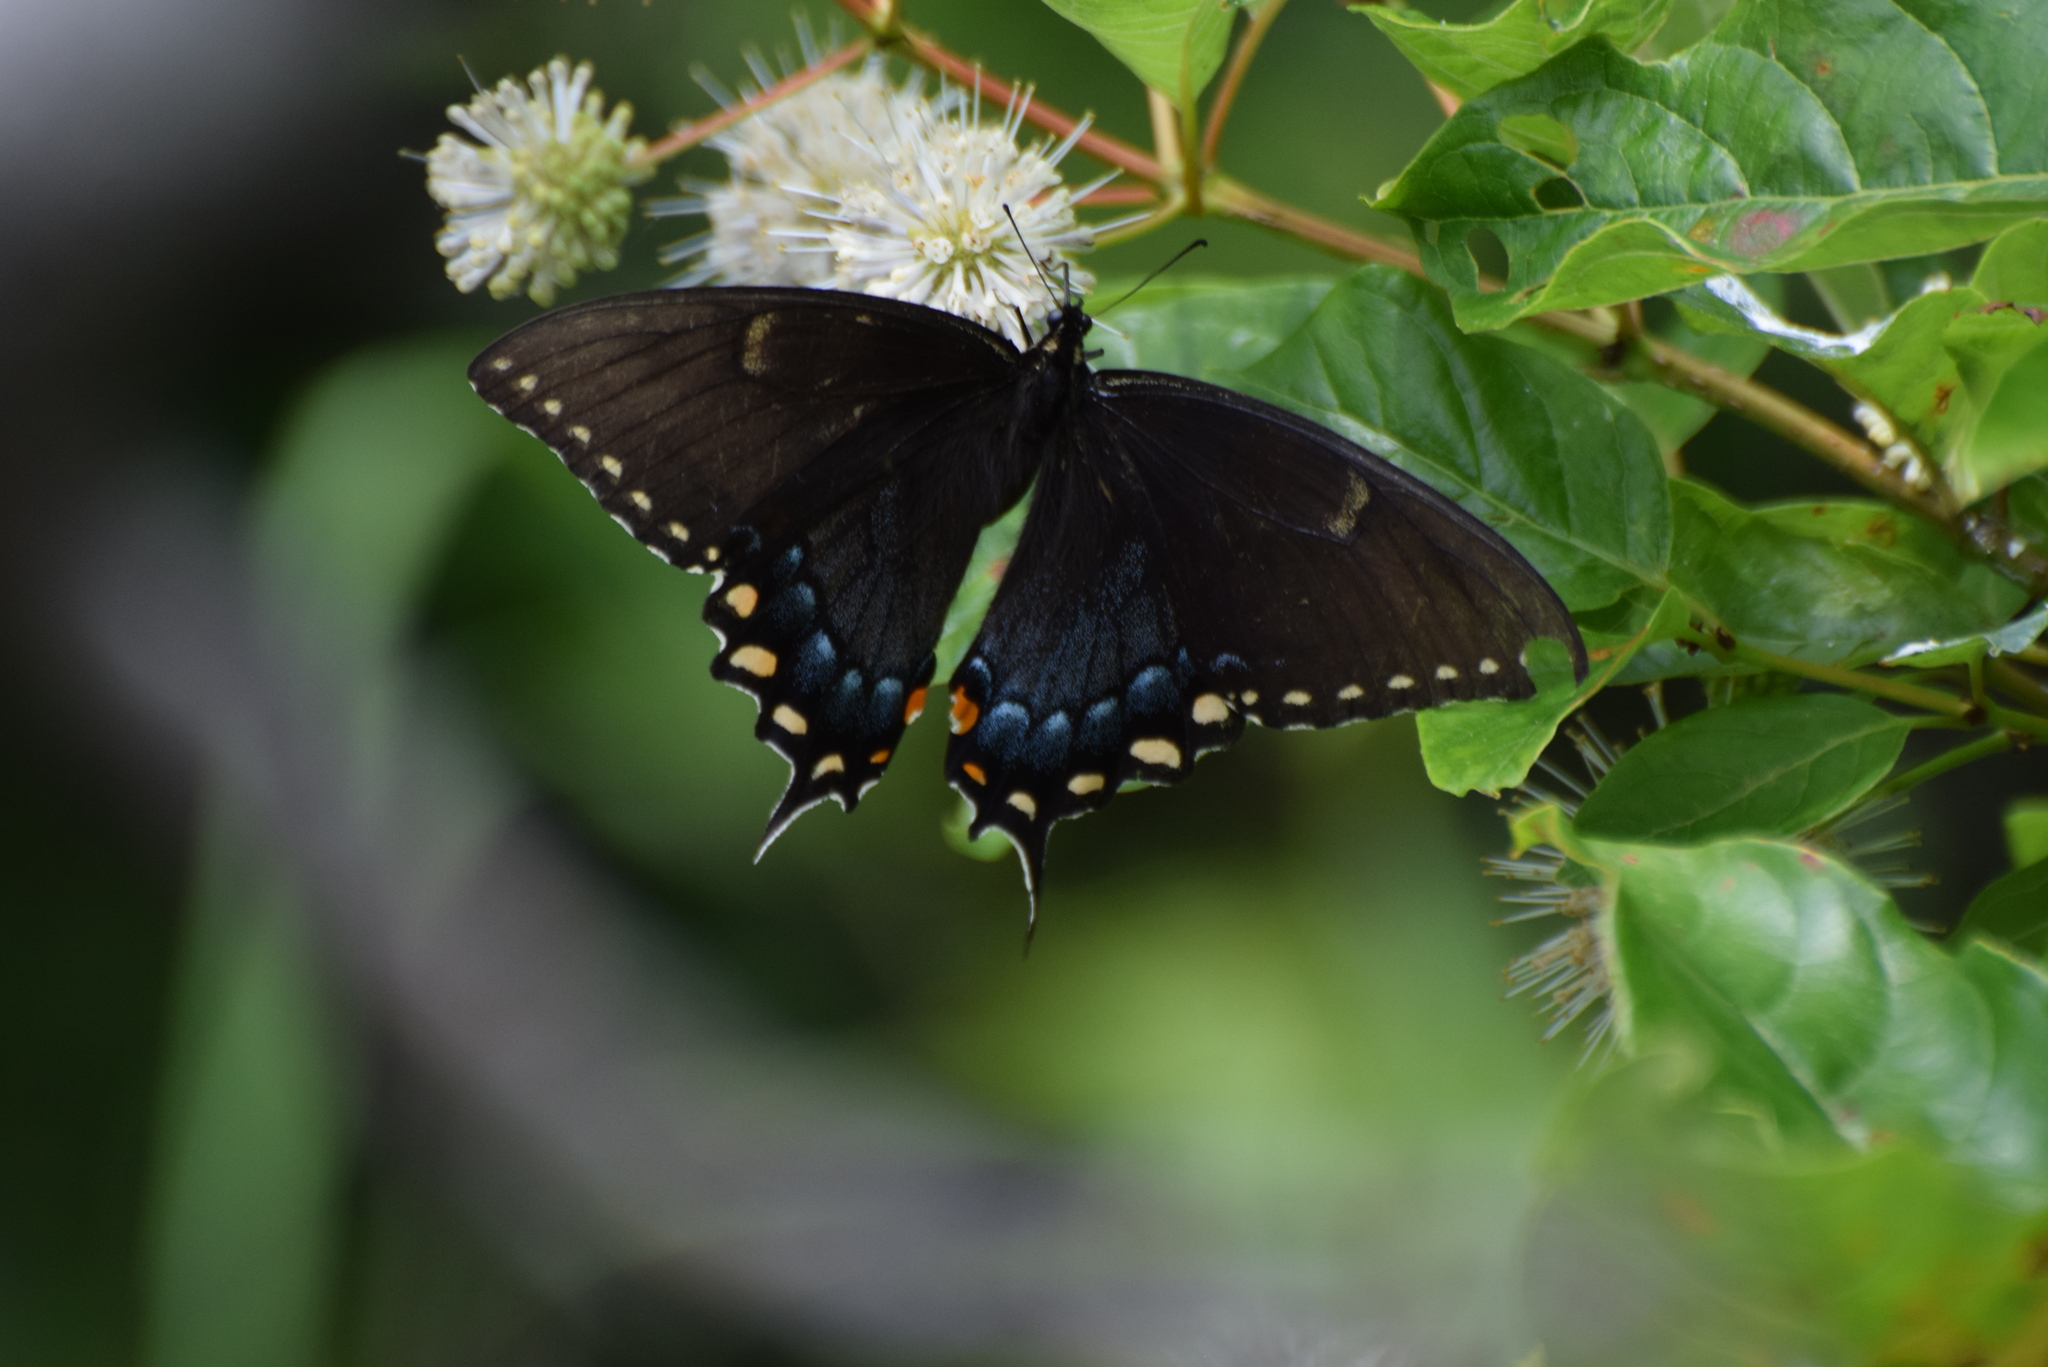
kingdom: Animalia
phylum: Arthropoda
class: Insecta
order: Lepidoptera
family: Papilionidae
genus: Papilio
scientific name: Papilio glaucus
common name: Tiger swallowtail
